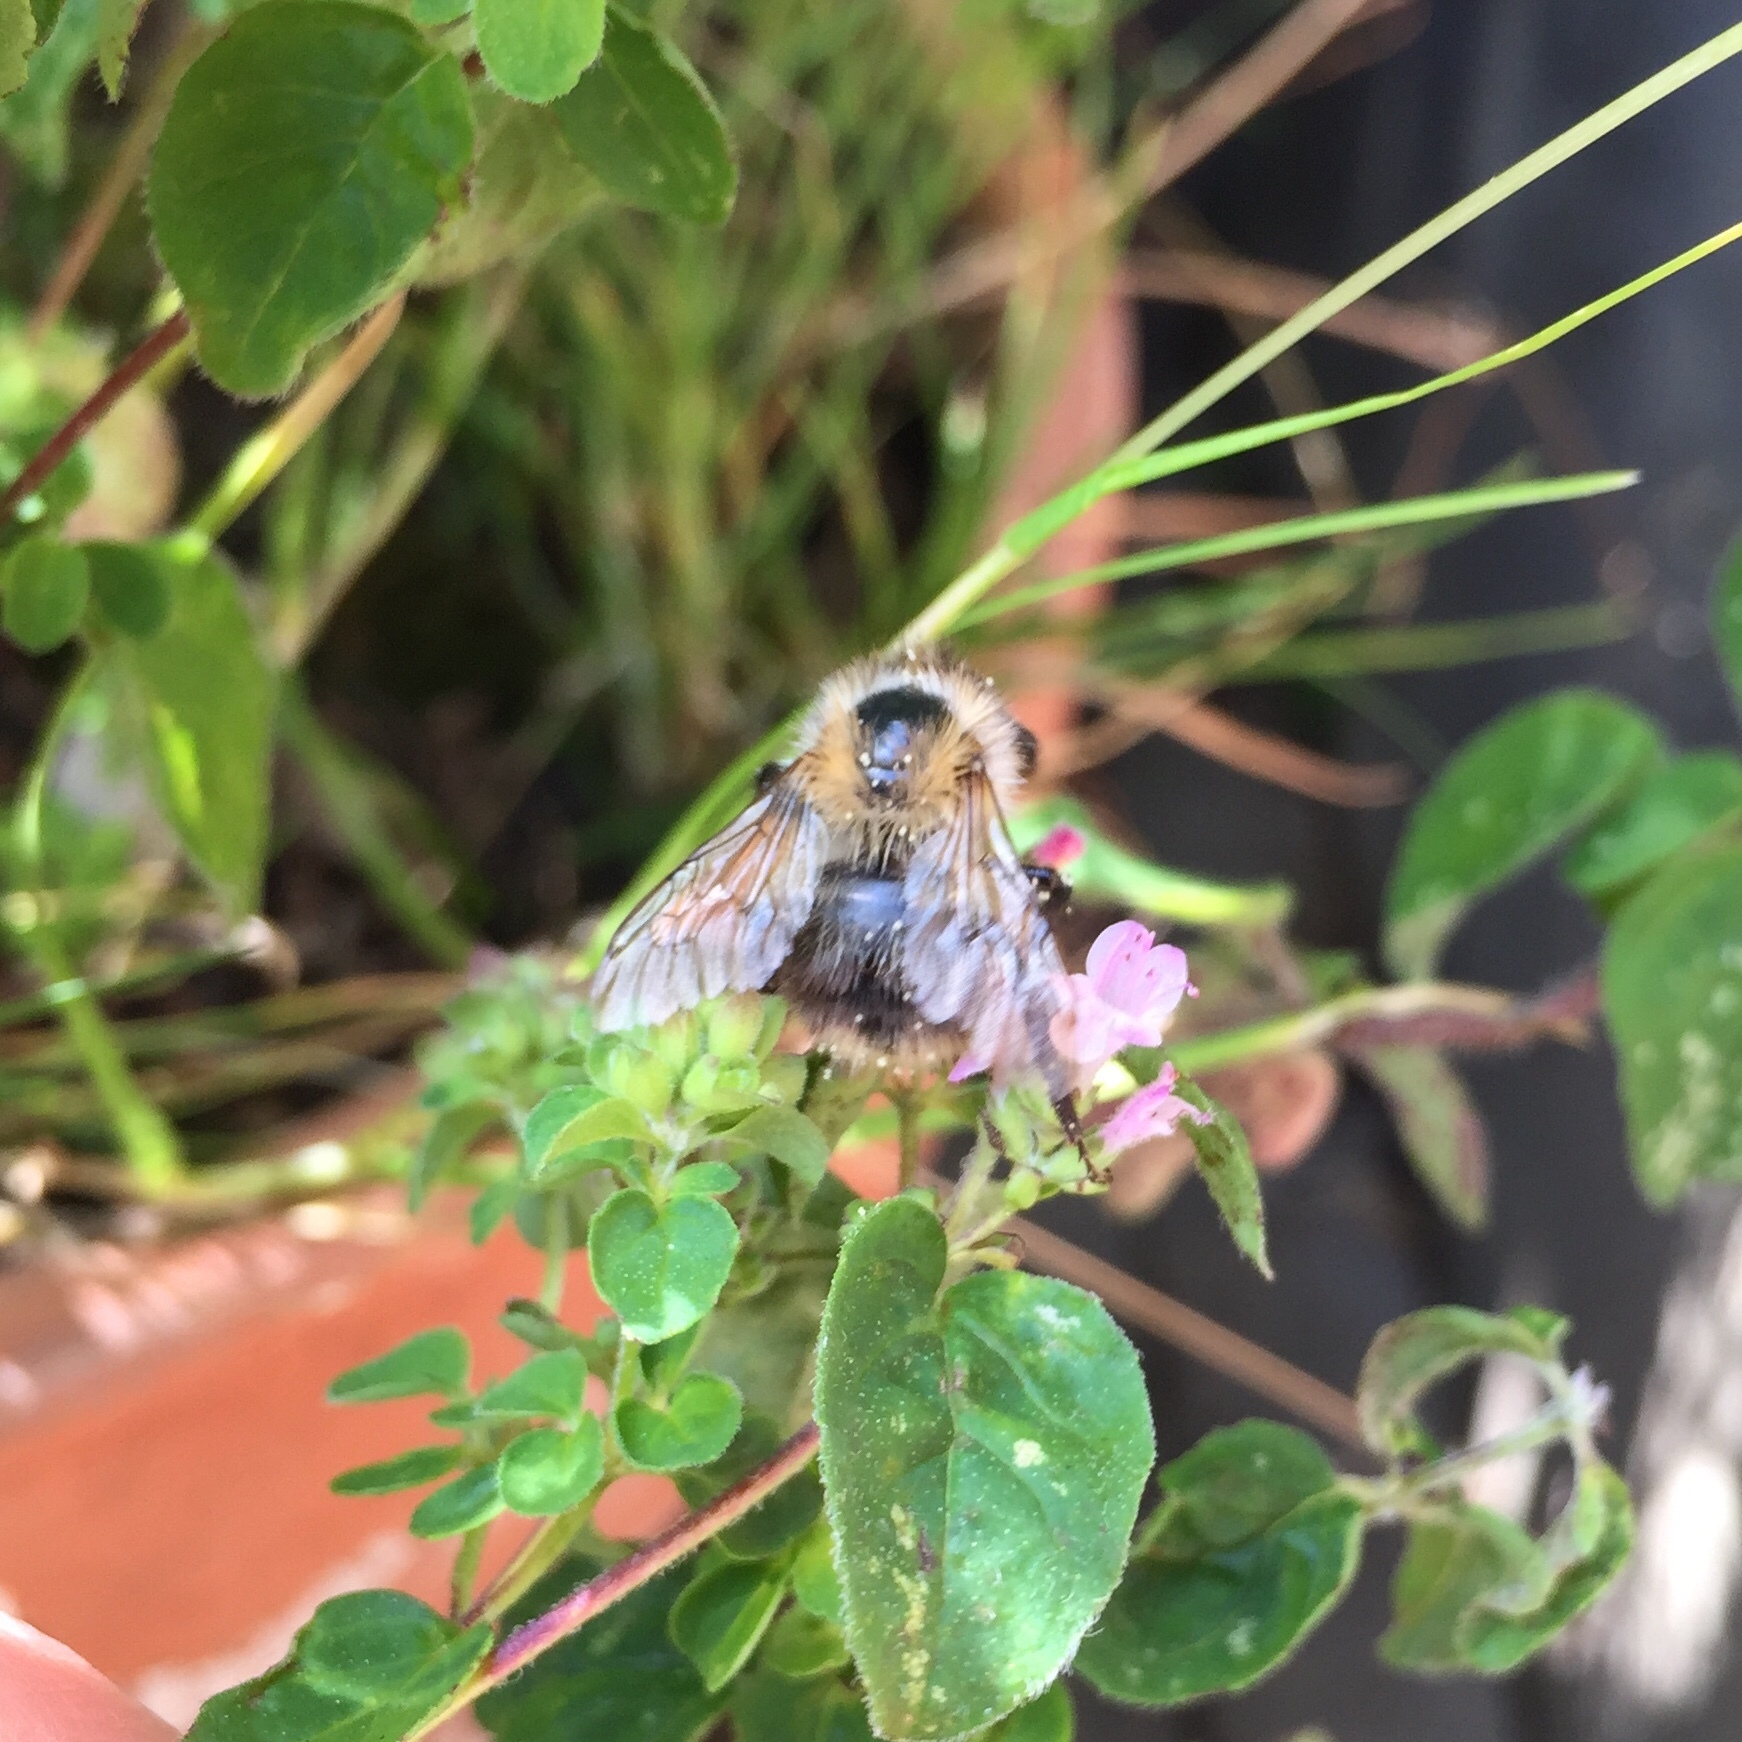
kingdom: Animalia
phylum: Arthropoda
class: Insecta
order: Hymenoptera
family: Apidae
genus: Bombus
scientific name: Bombus pascuorum
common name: Common carder bee
